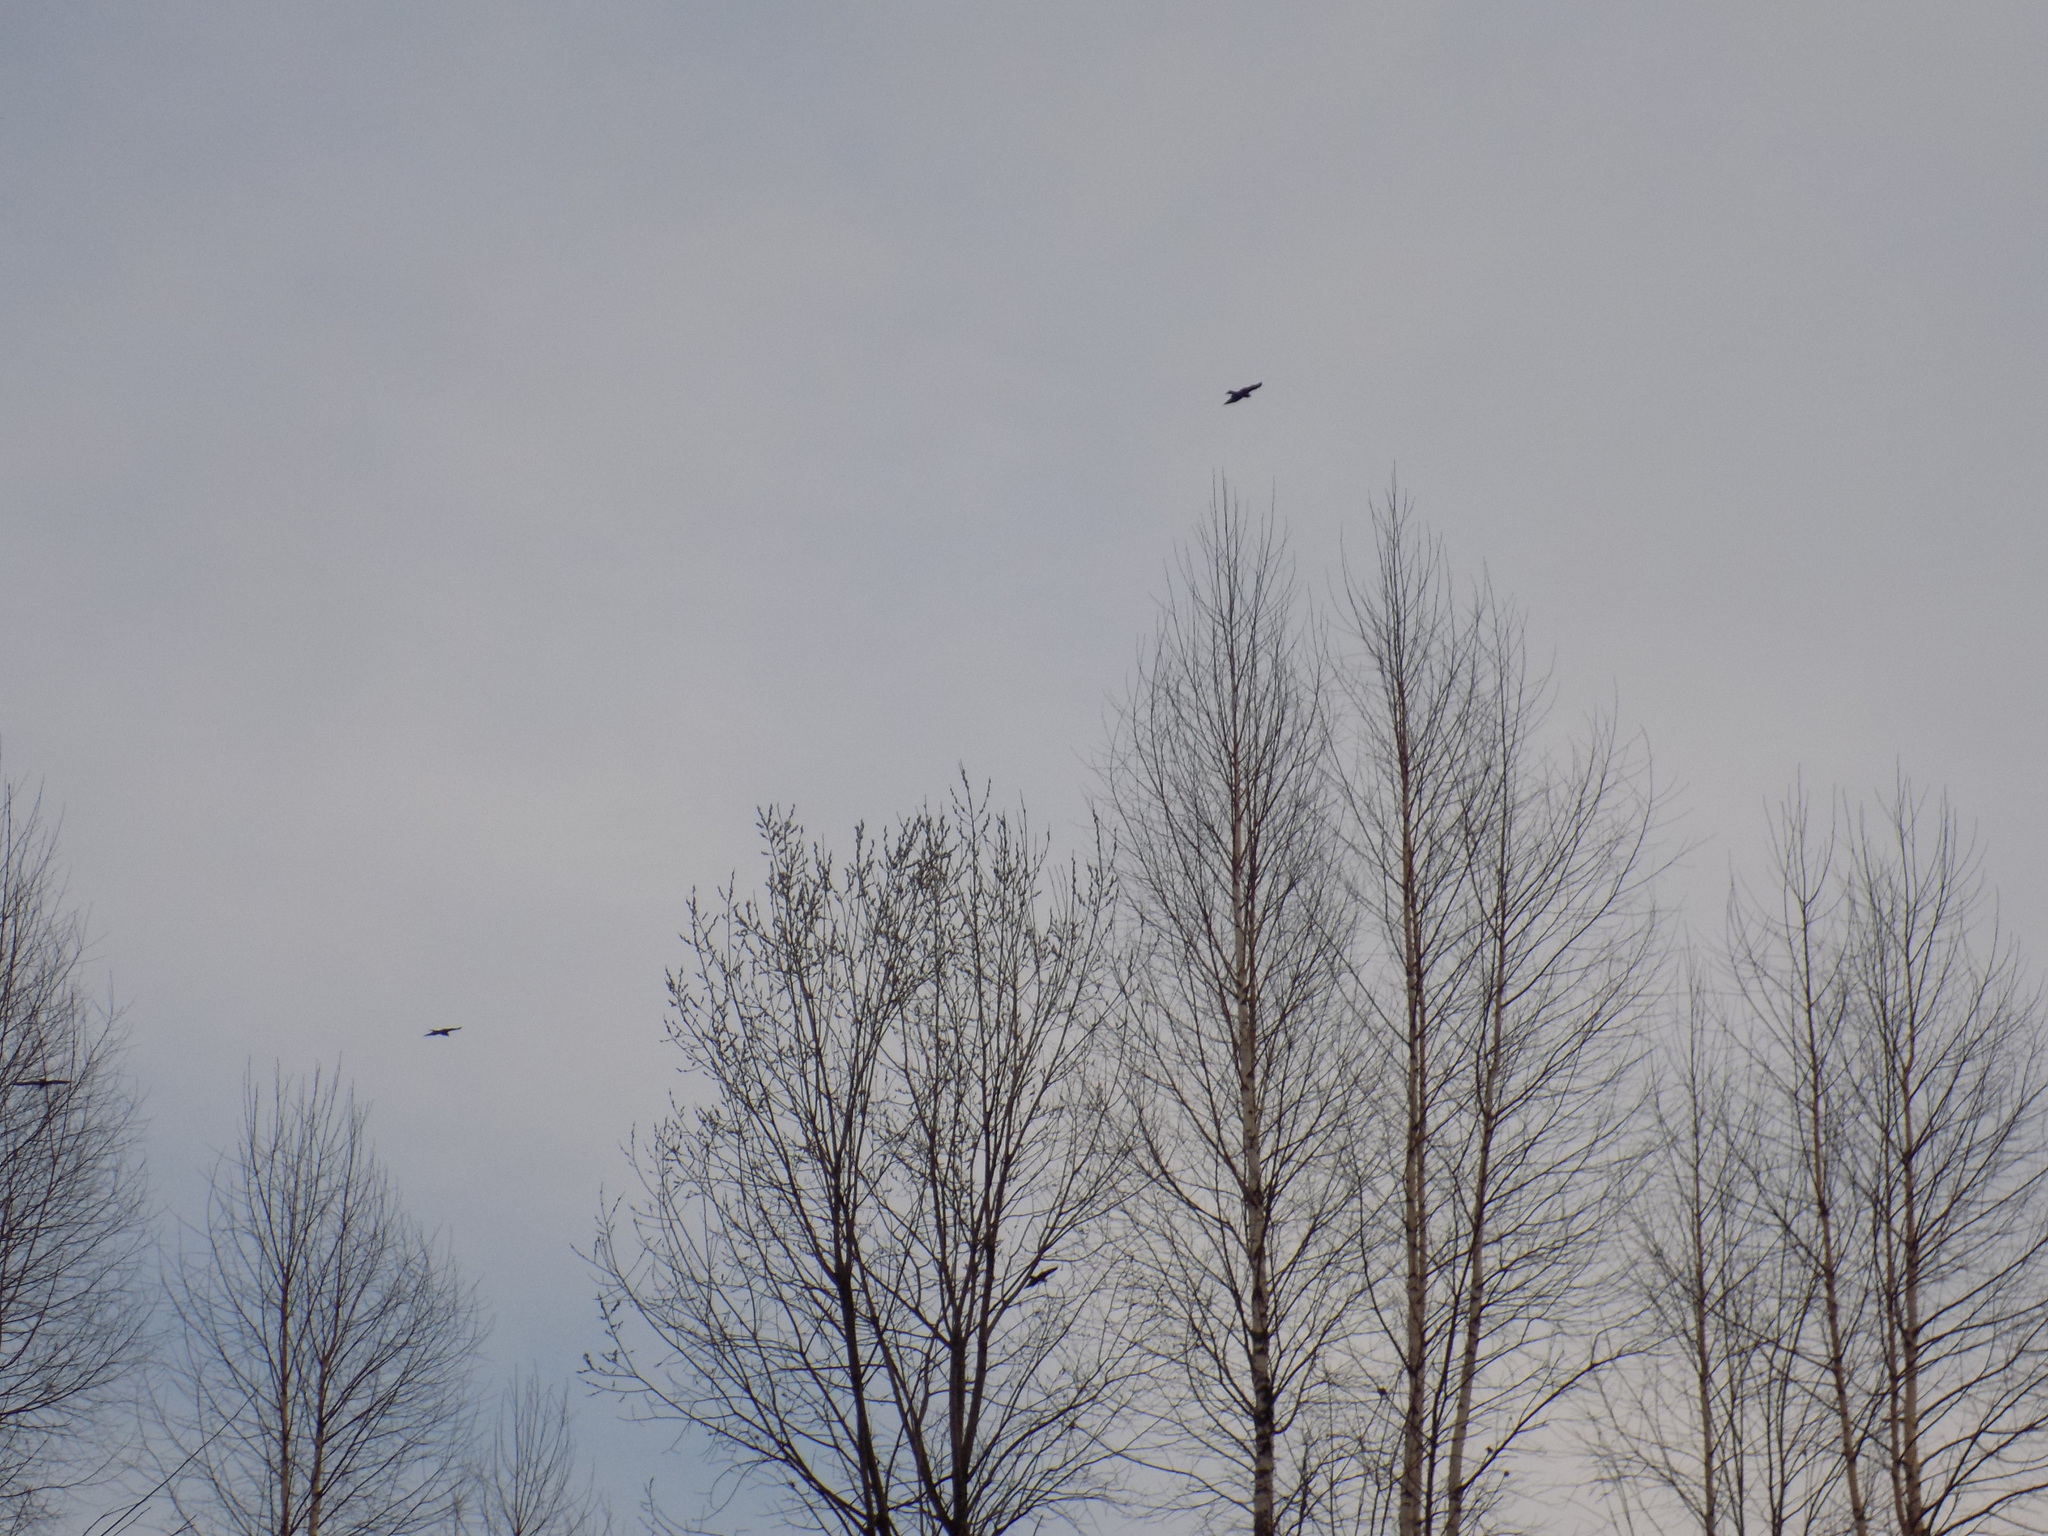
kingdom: Animalia
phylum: Chordata
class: Aves
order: Accipitriformes
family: Accipitridae
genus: Milvus
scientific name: Milvus migrans
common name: Black kite
